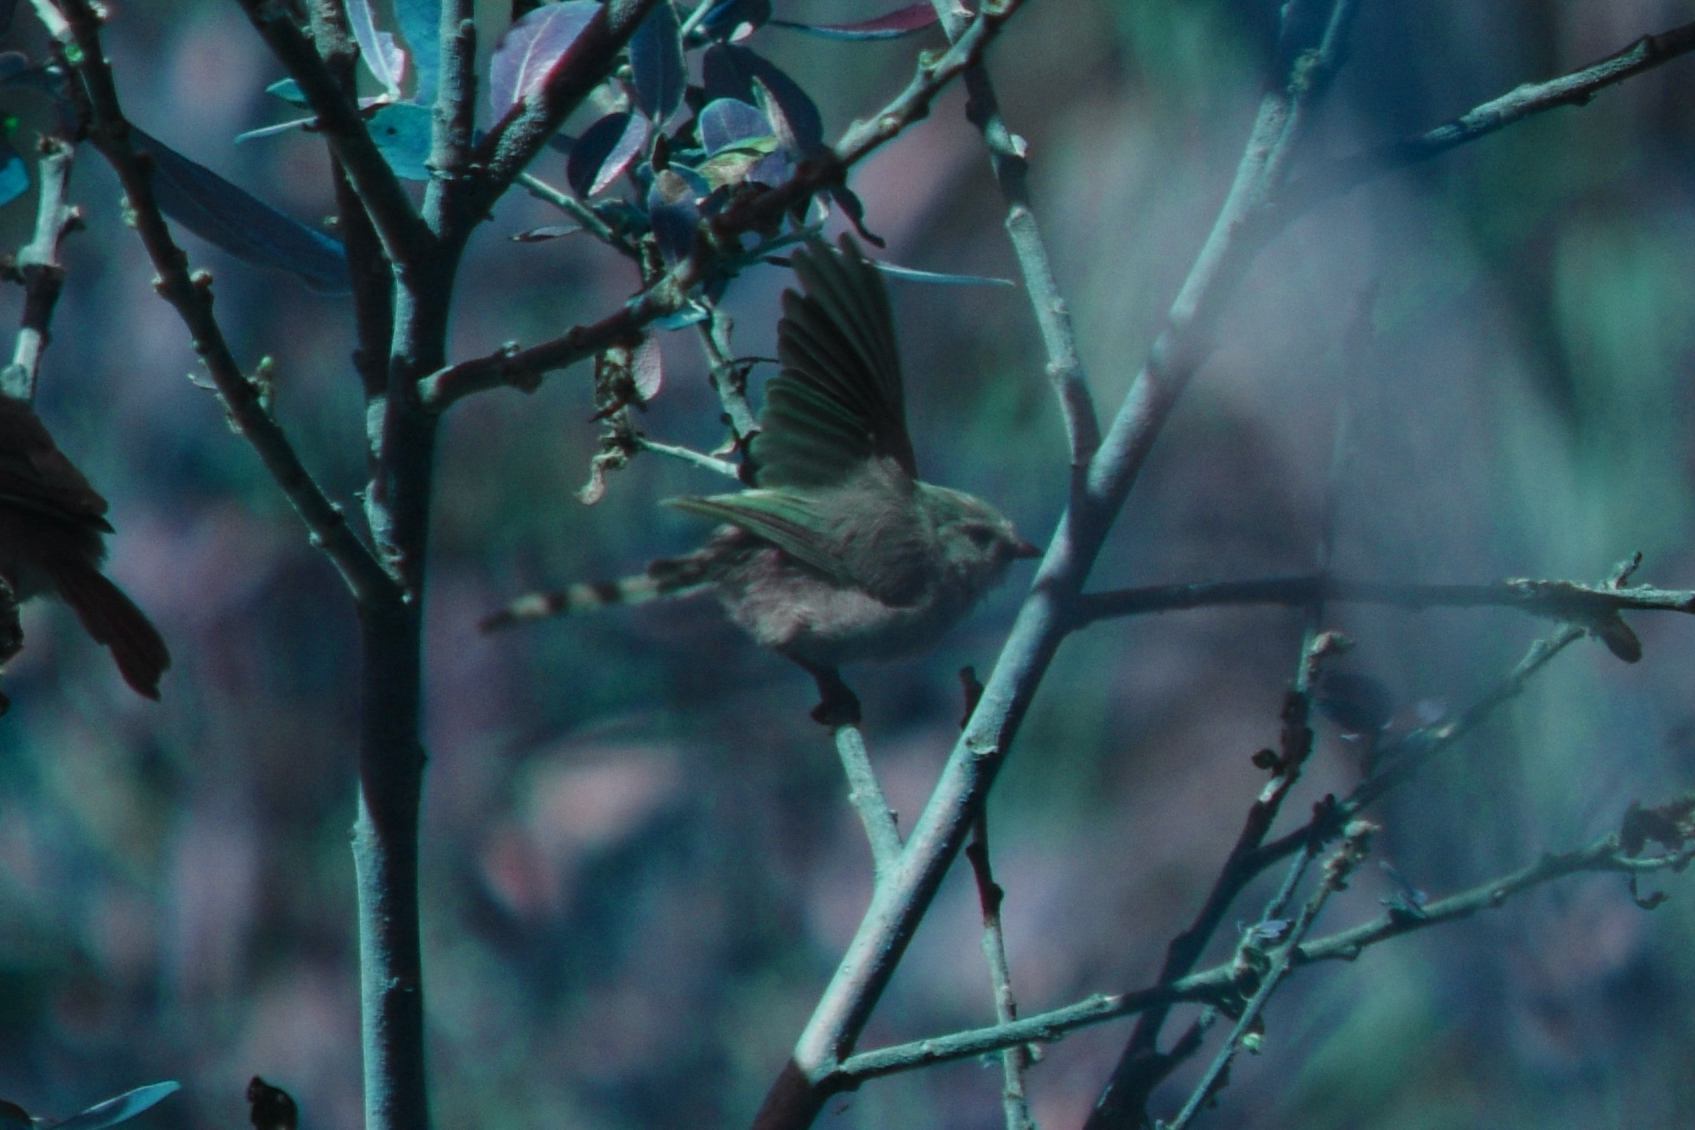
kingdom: Animalia
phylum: Chordata
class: Aves
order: Passeriformes
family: Aegithalidae
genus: Psaltriparus
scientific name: Psaltriparus minimus
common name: American bushtit
